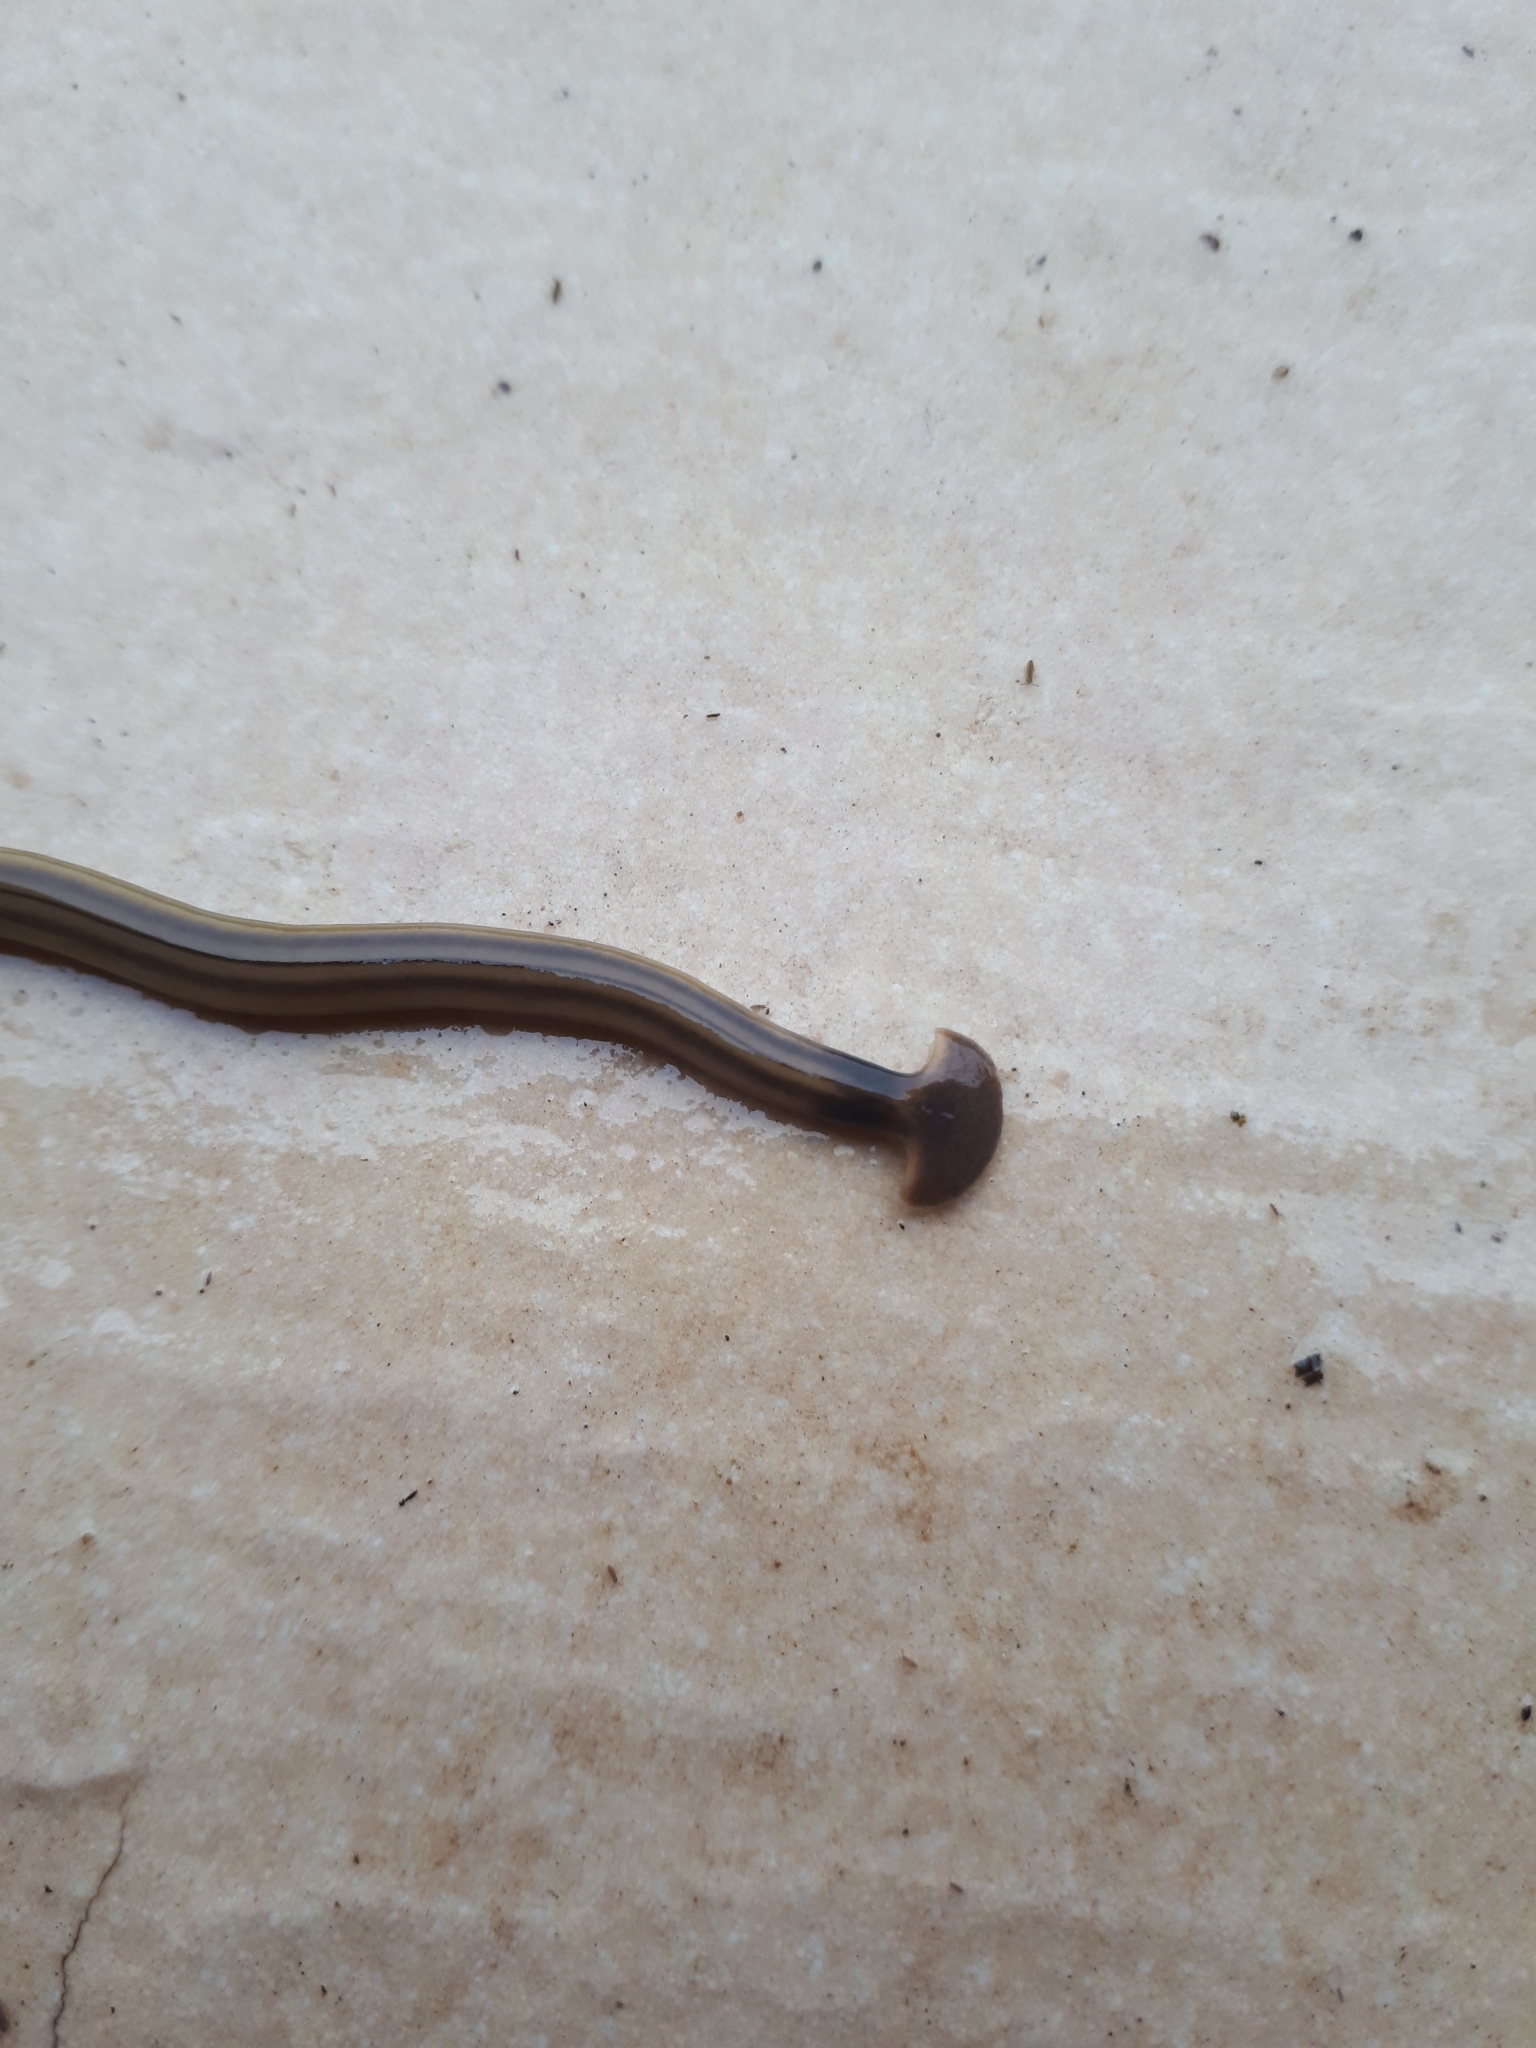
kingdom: Animalia
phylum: Platyhelminthes
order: Tricladida
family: Geoplanidae
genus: Bipalium
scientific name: Bipalium kewense
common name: Hammerhead flatworm
